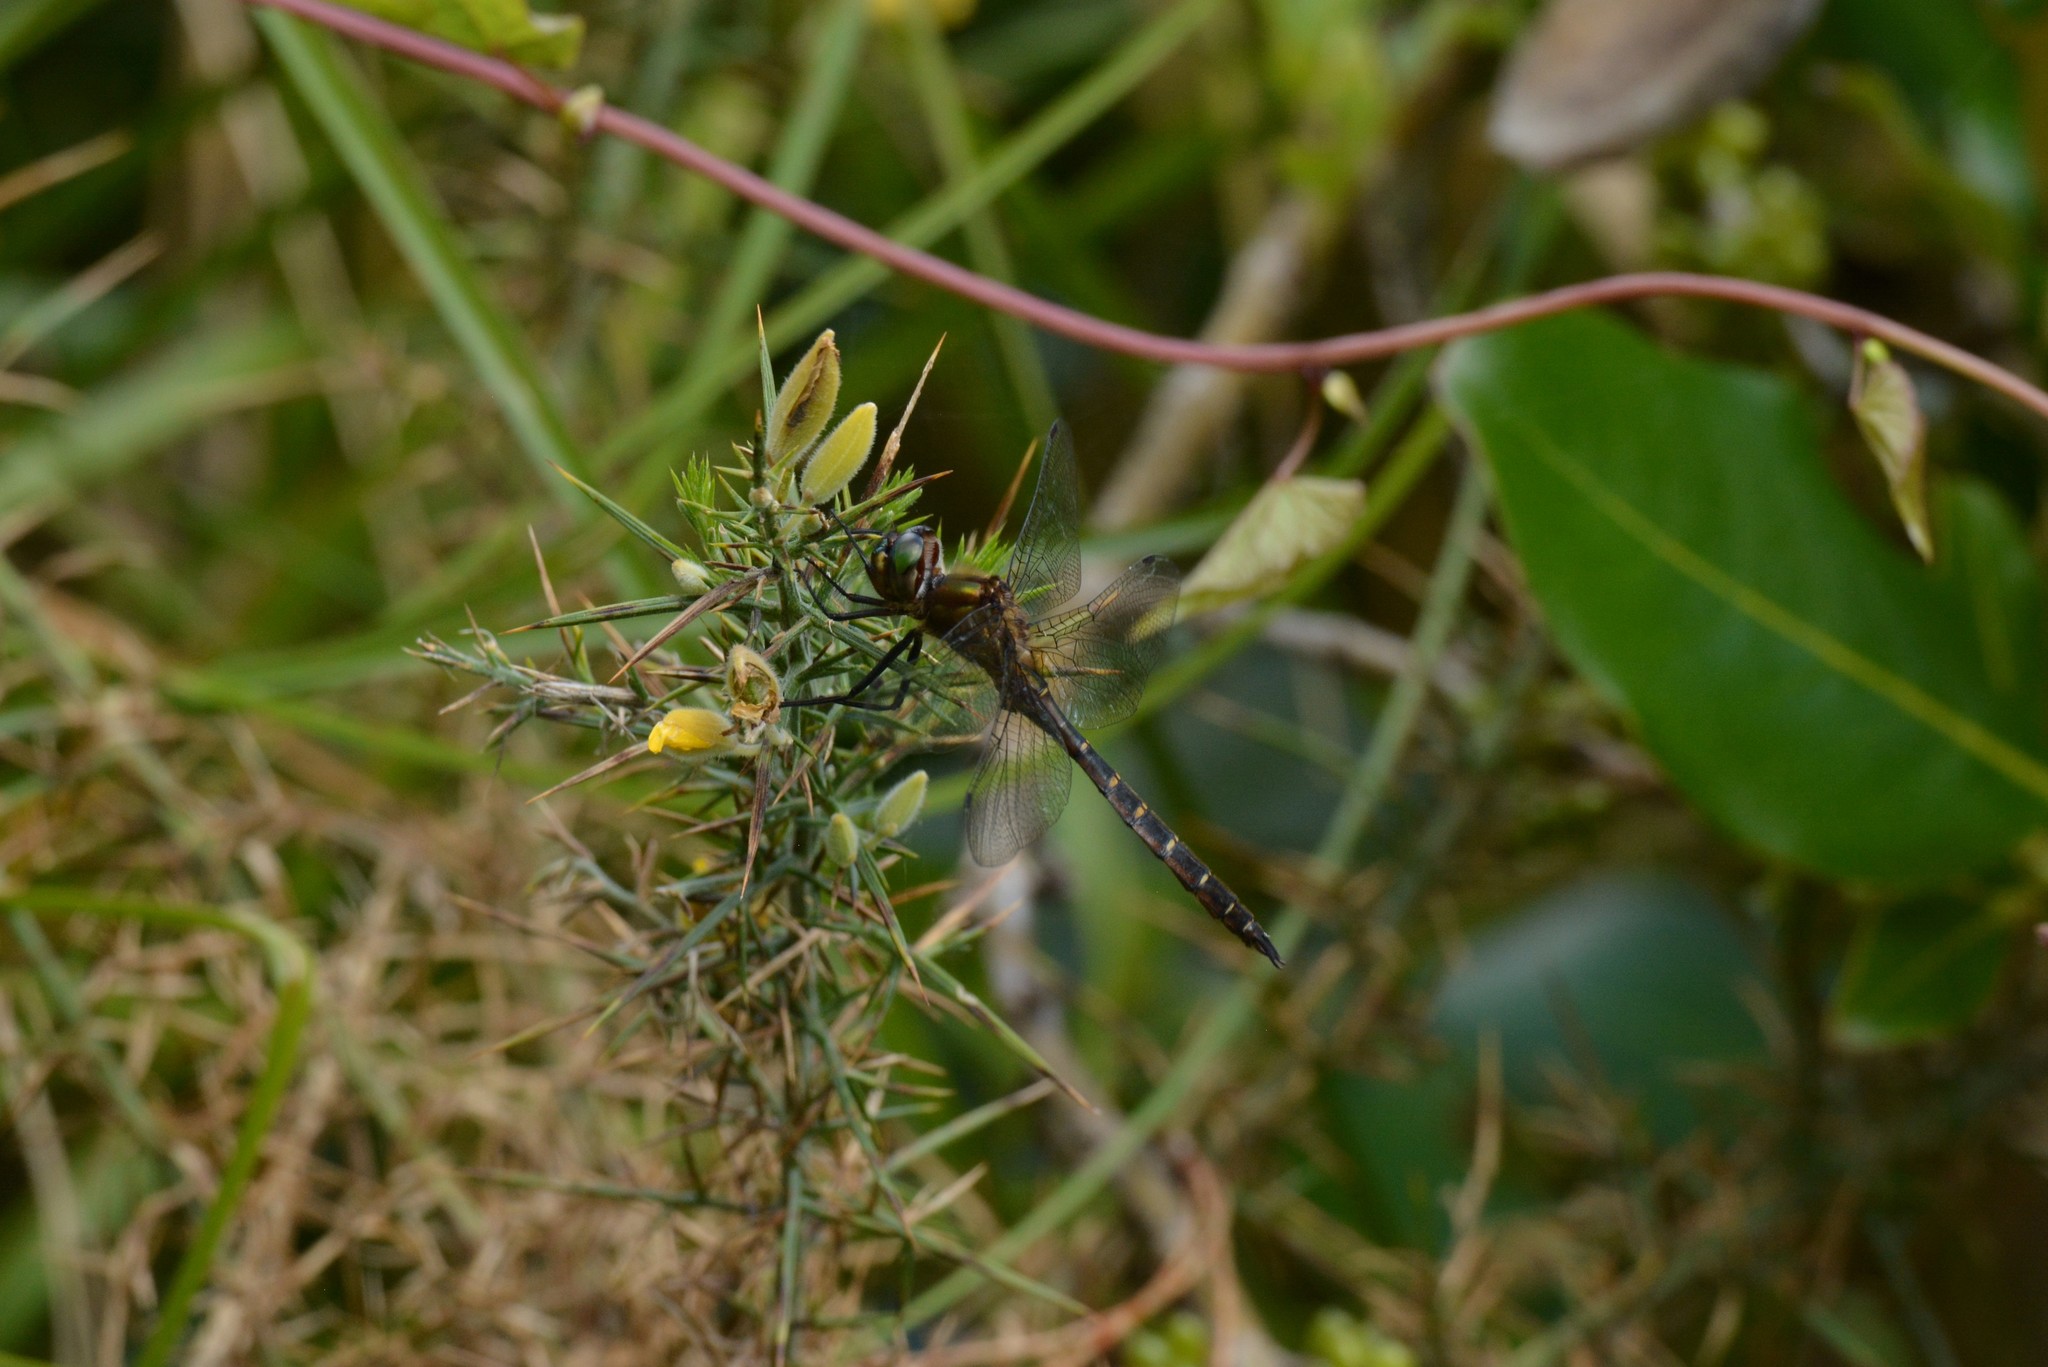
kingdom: Animalia
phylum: Arthropoda
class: Insecta
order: Odonata
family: Corduliidae
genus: Procordulia
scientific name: Procordulia smithii
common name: Ranger dragonfly
